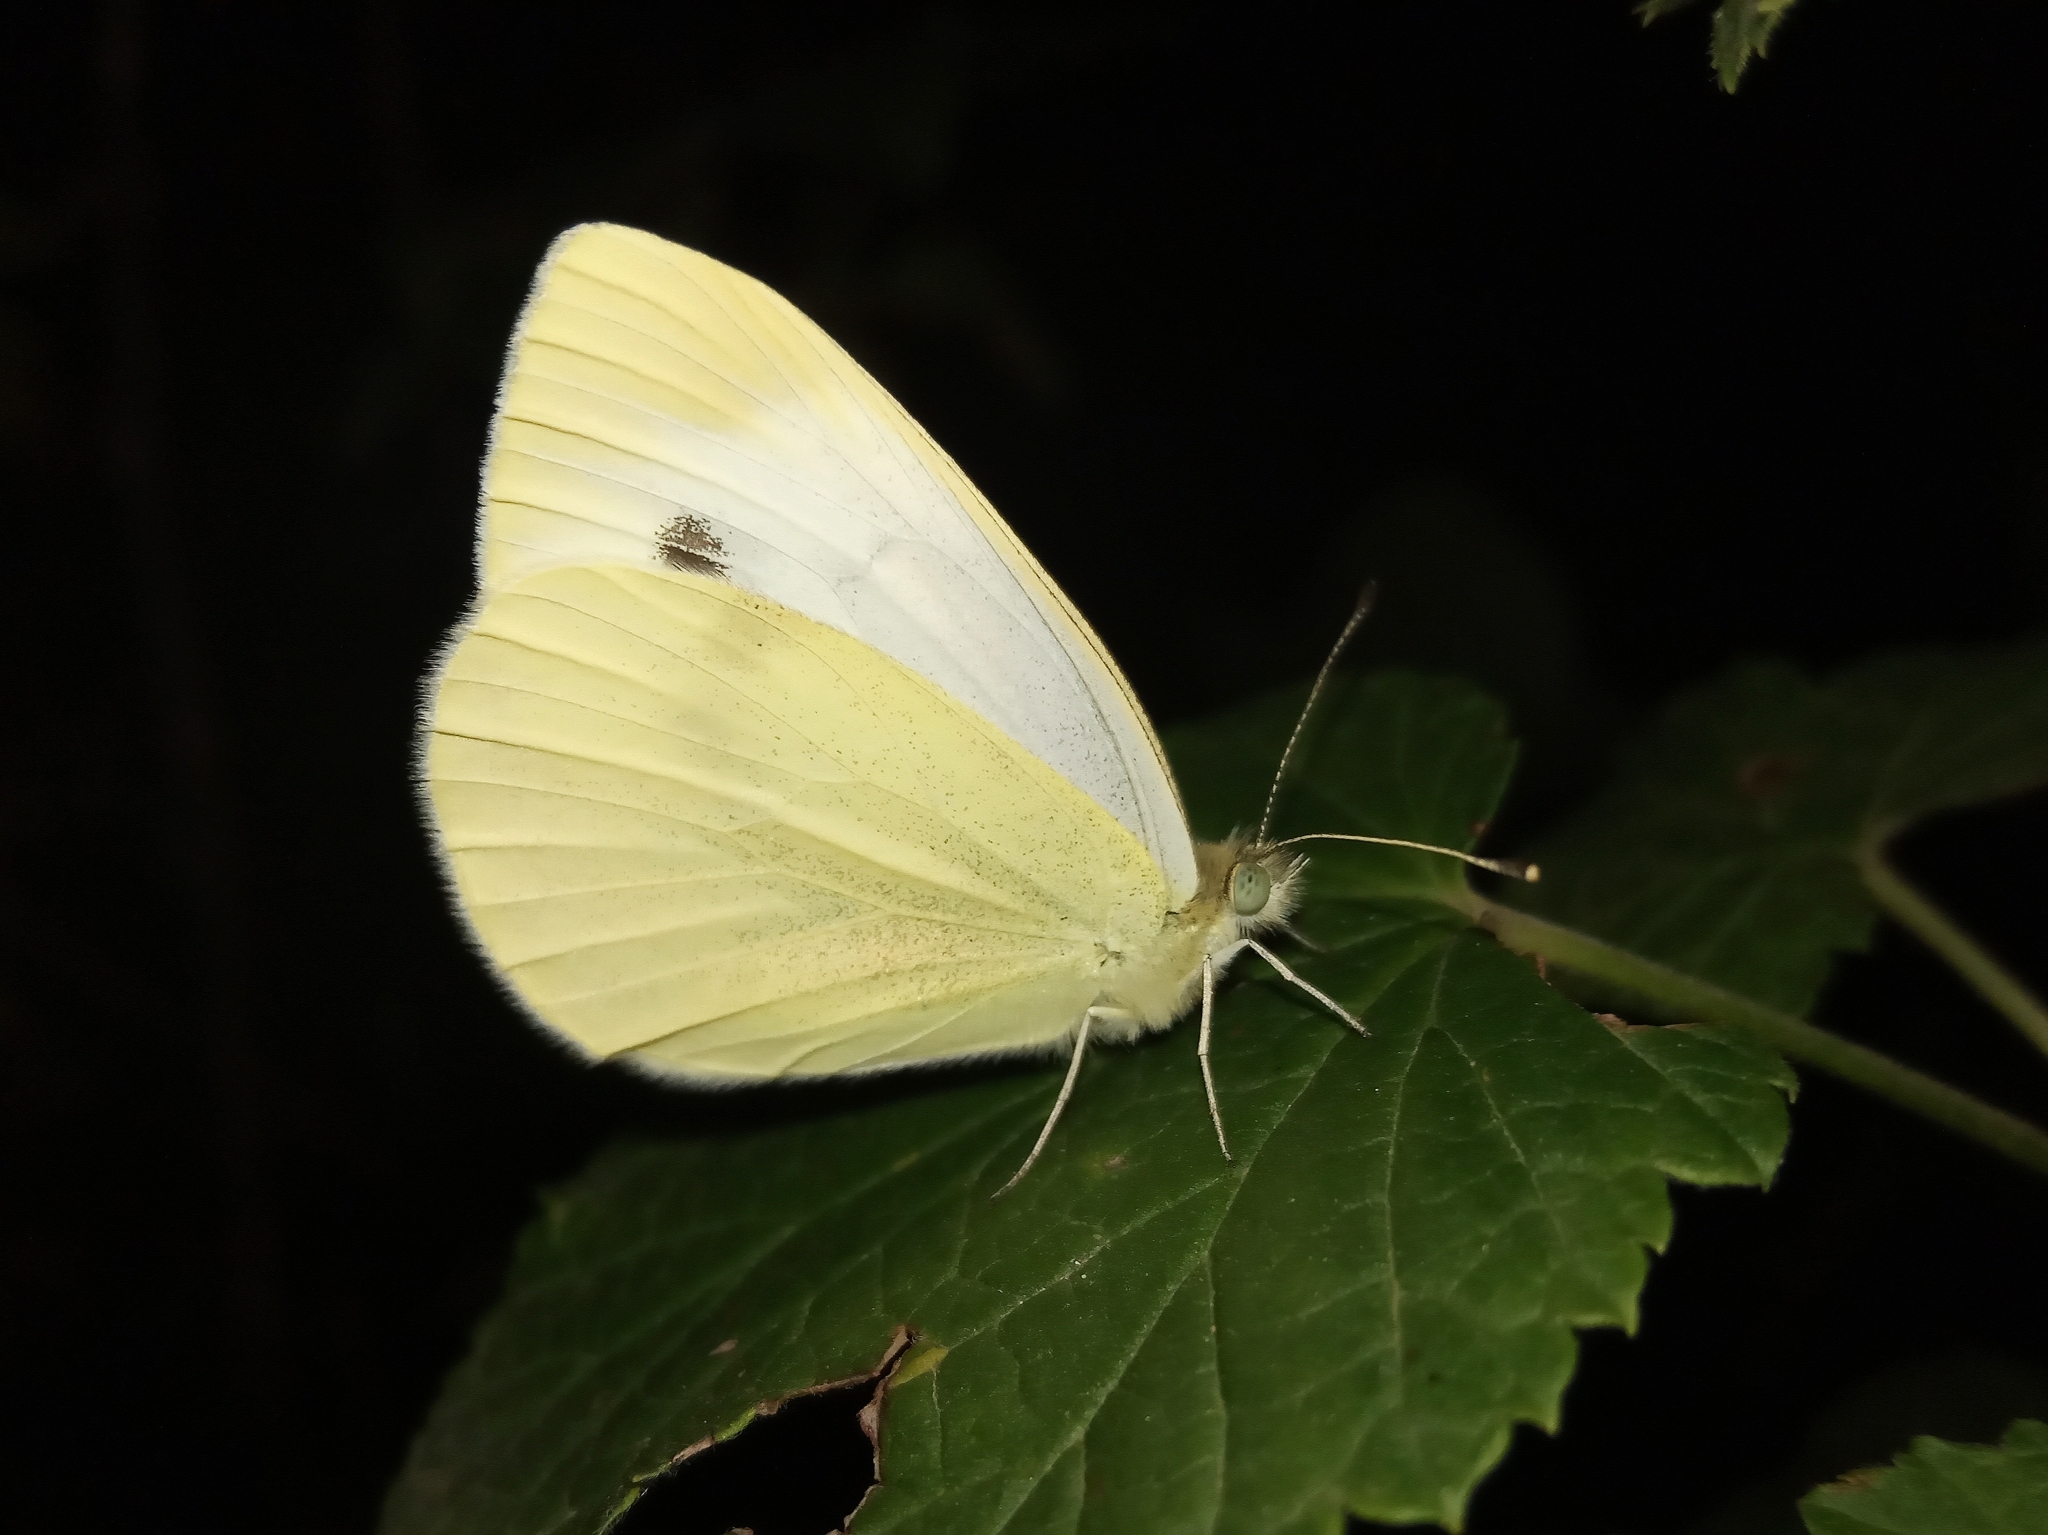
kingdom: Animalia
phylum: Arthropoda
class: Insecta
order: Lepidoptera
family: Pieridae
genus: Pieris
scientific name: Pieris rapae
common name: Small white
